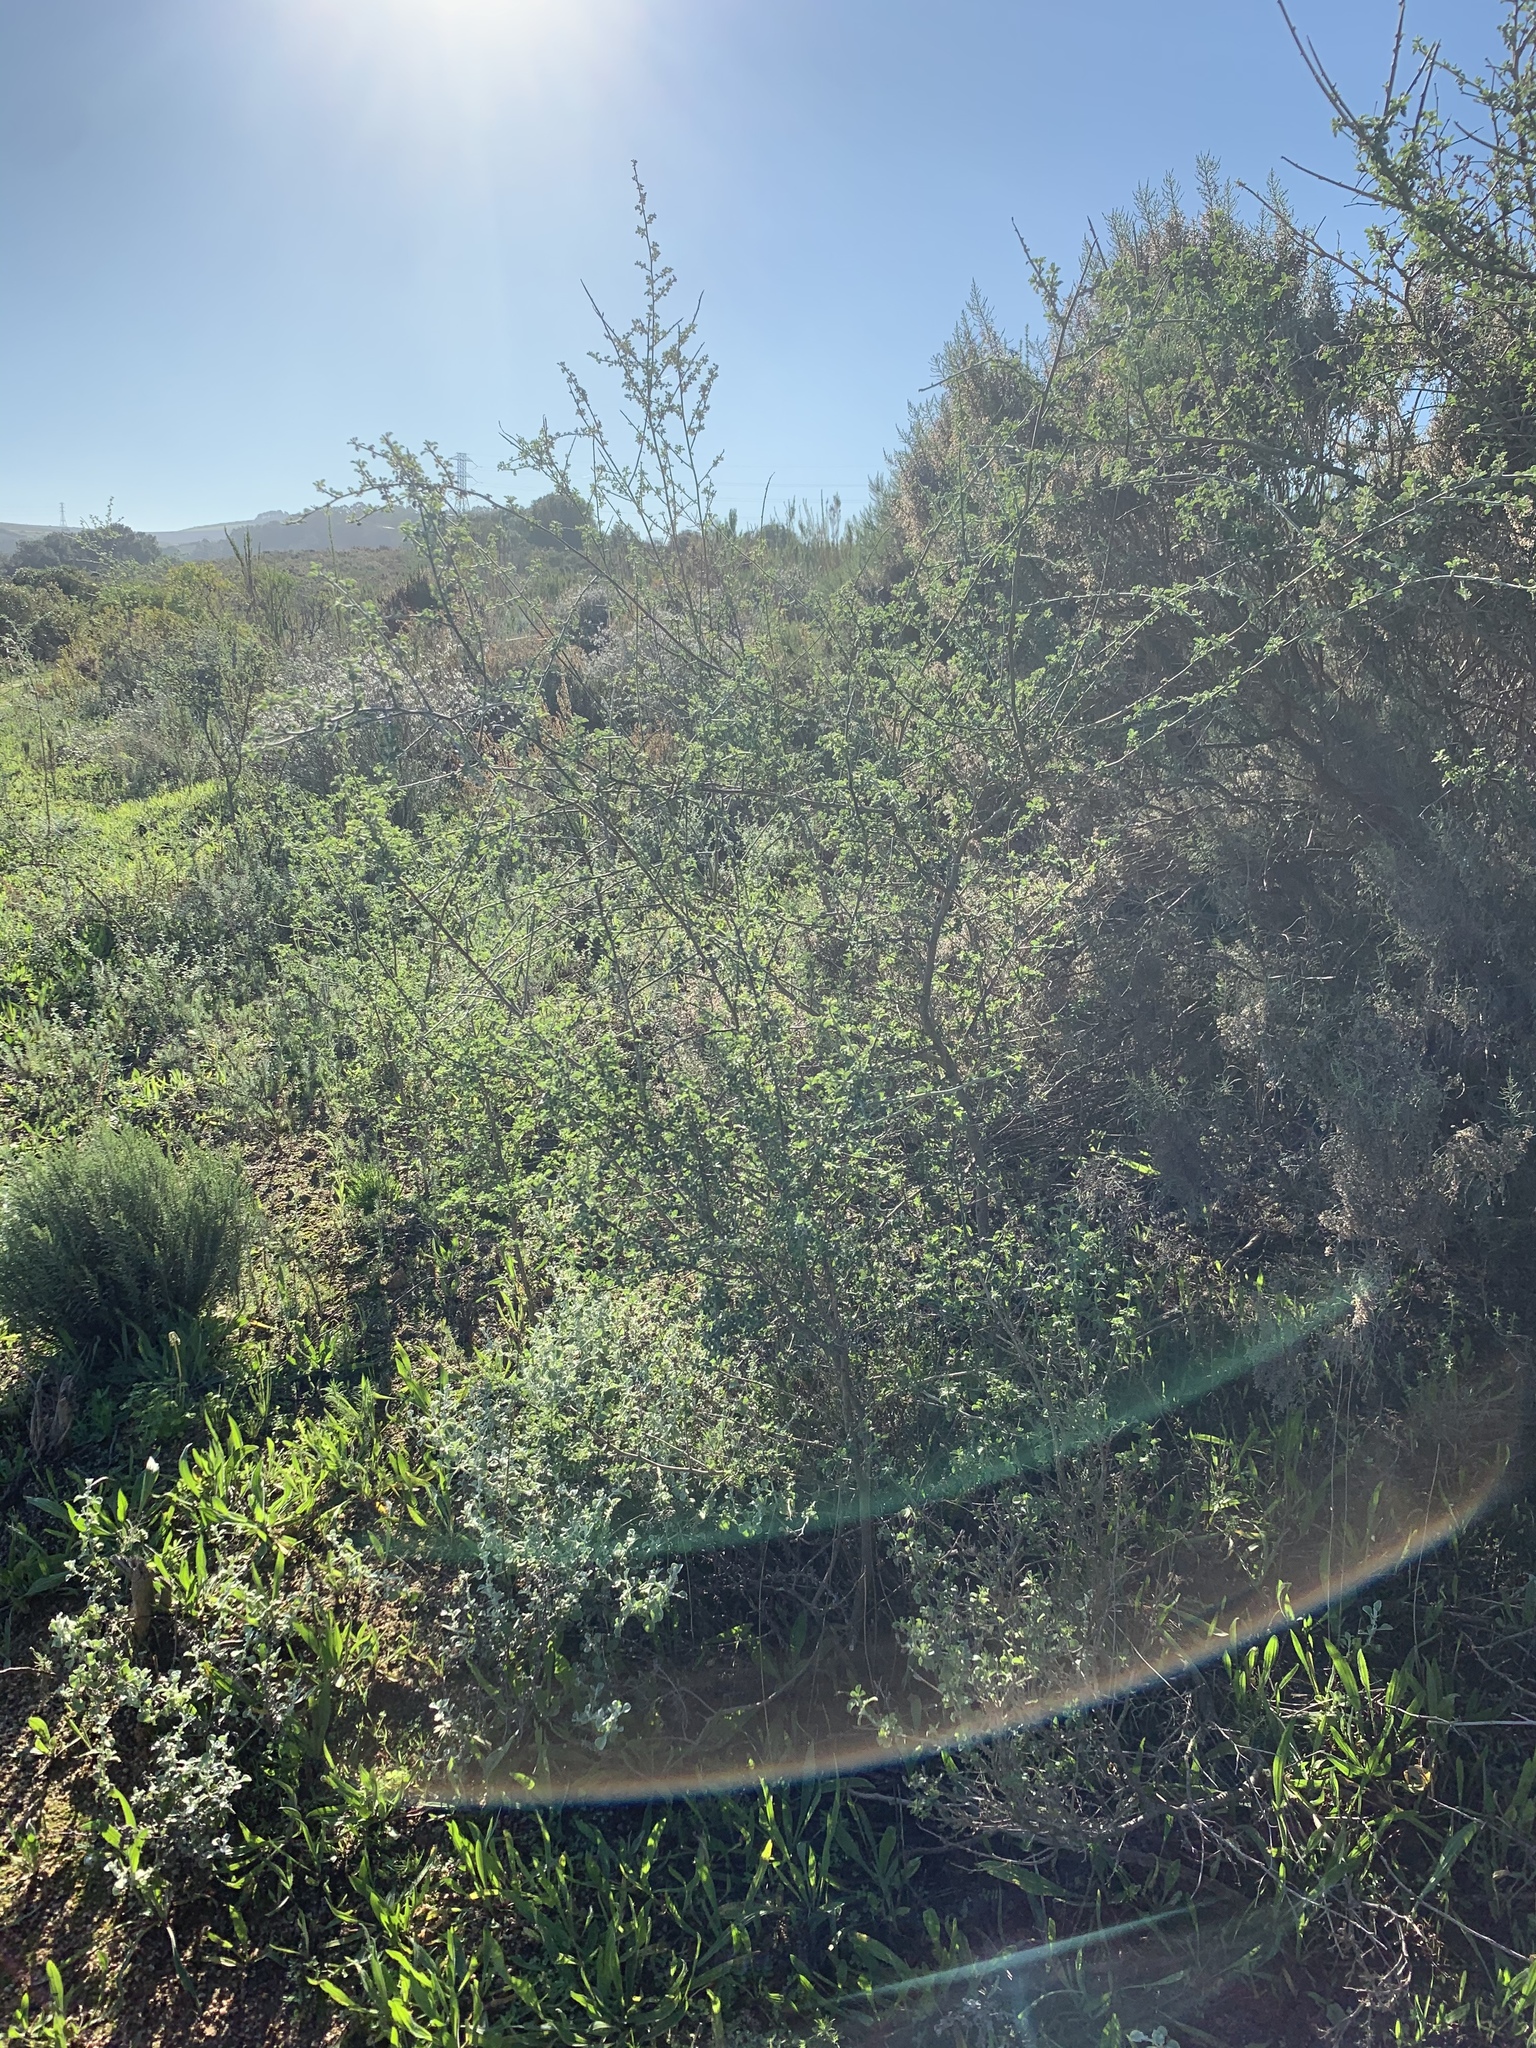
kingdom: Plantae
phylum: Tracheophyta
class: Magnoliopsida
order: Fabales
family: Fabaceae
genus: Psoralea
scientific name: Psoralea hirta
